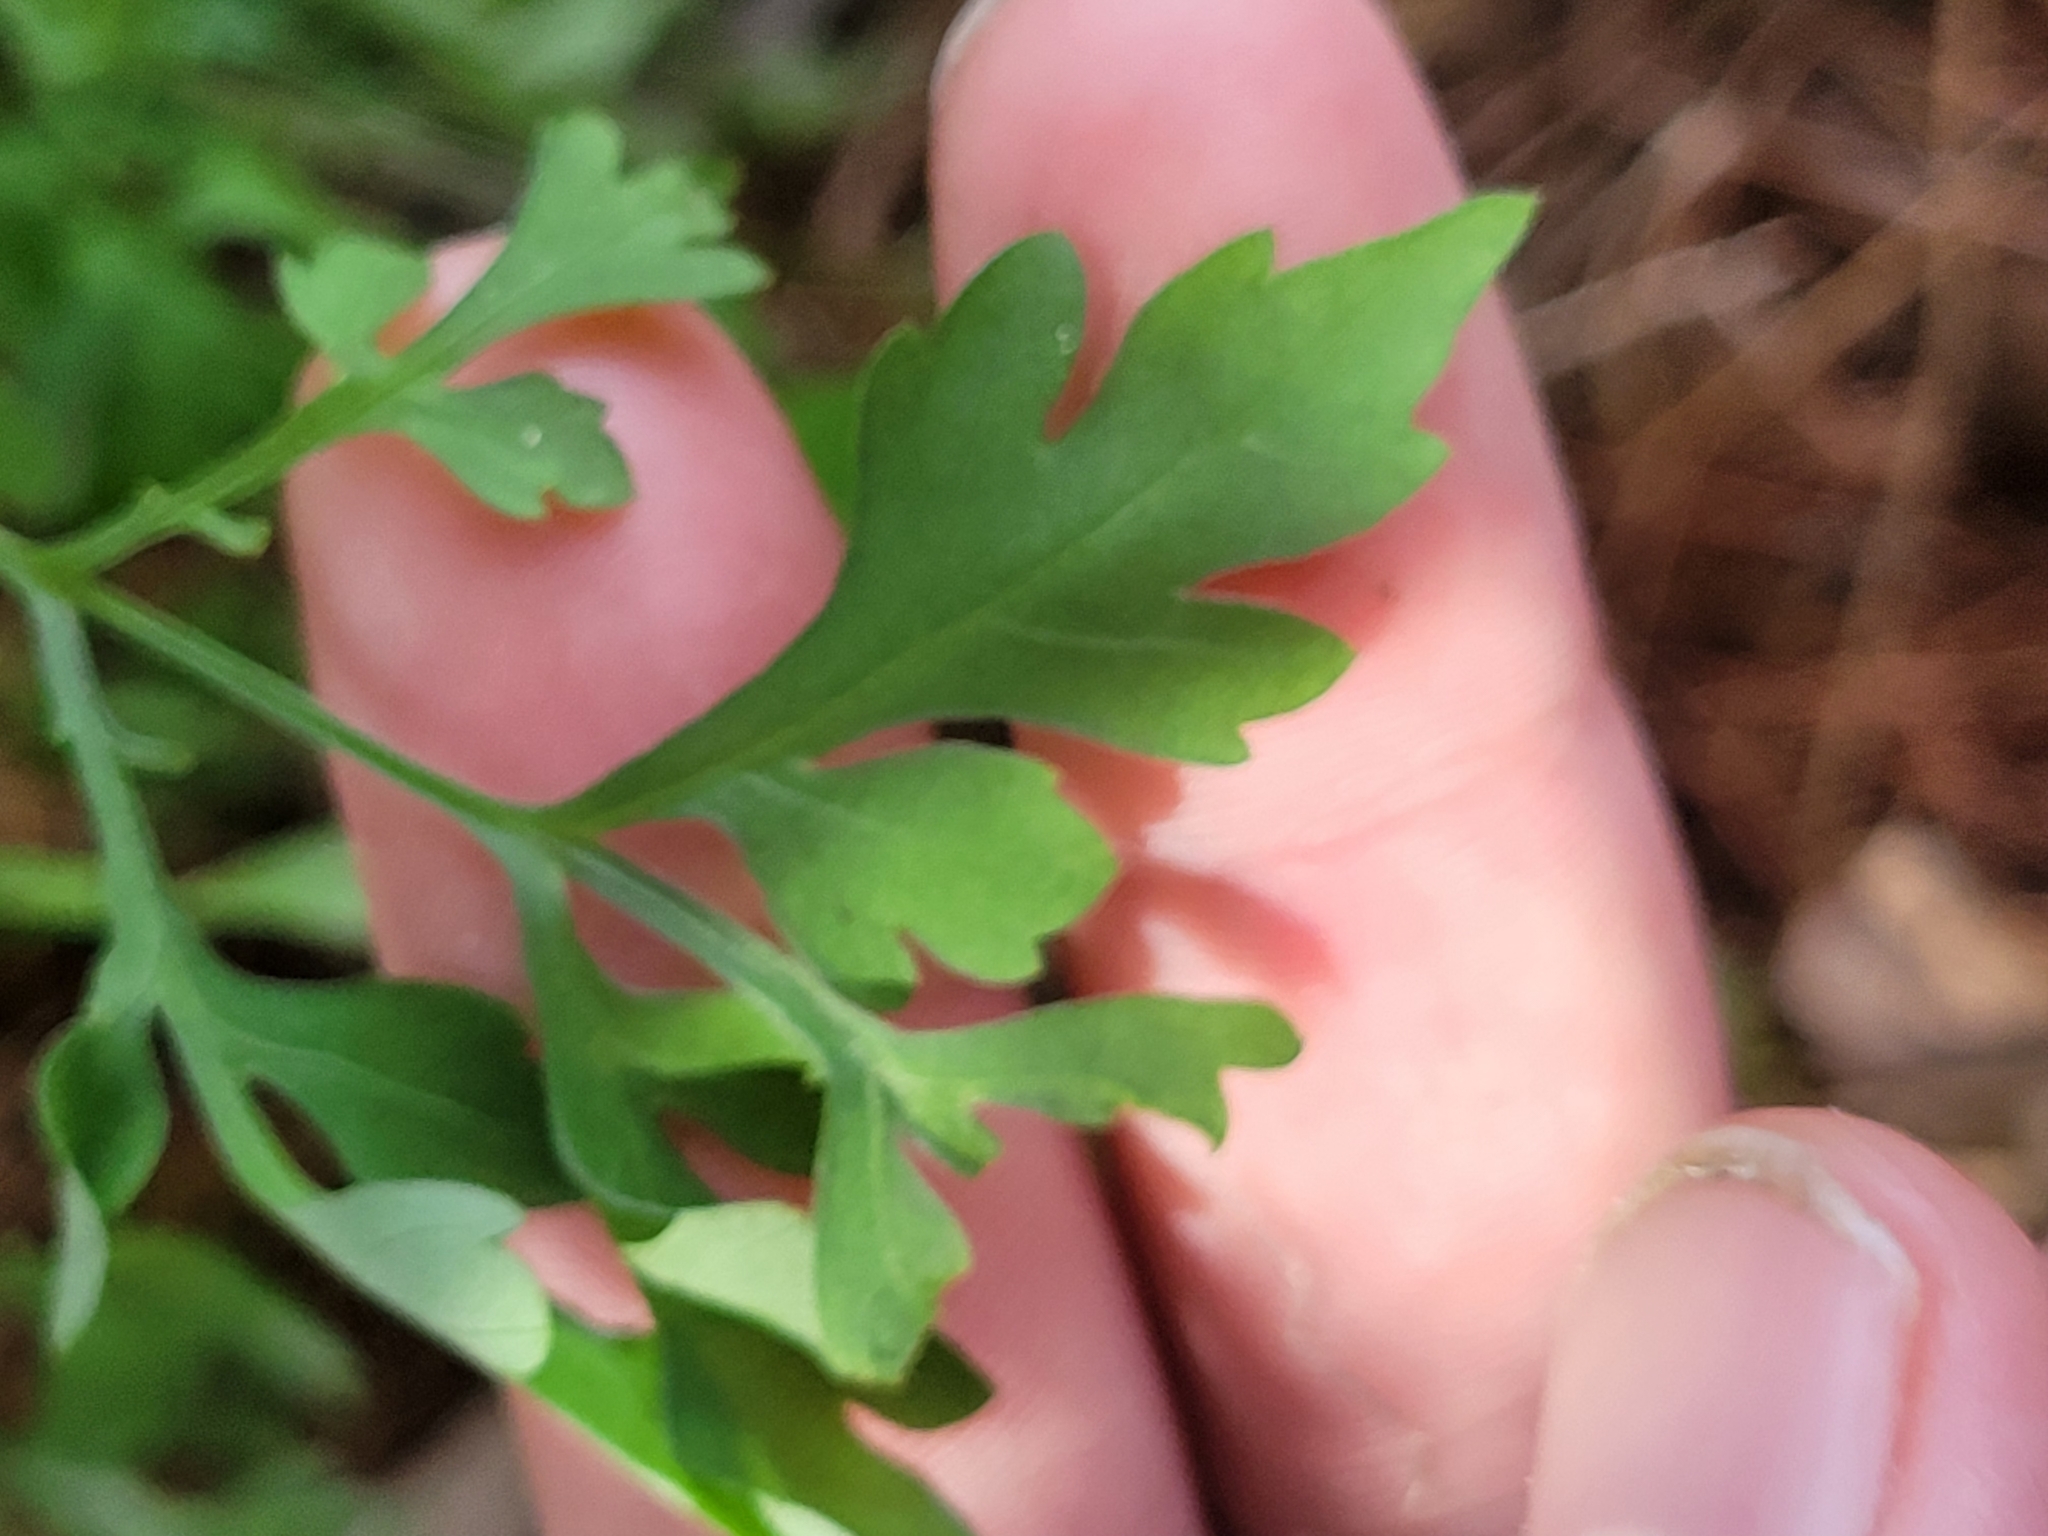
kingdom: Plantae
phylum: Tracheophyta
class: Magnoliopsida
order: Asterales
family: Asteraceae
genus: Bidens
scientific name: Bidens bipinnata
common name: Spanish-needles
